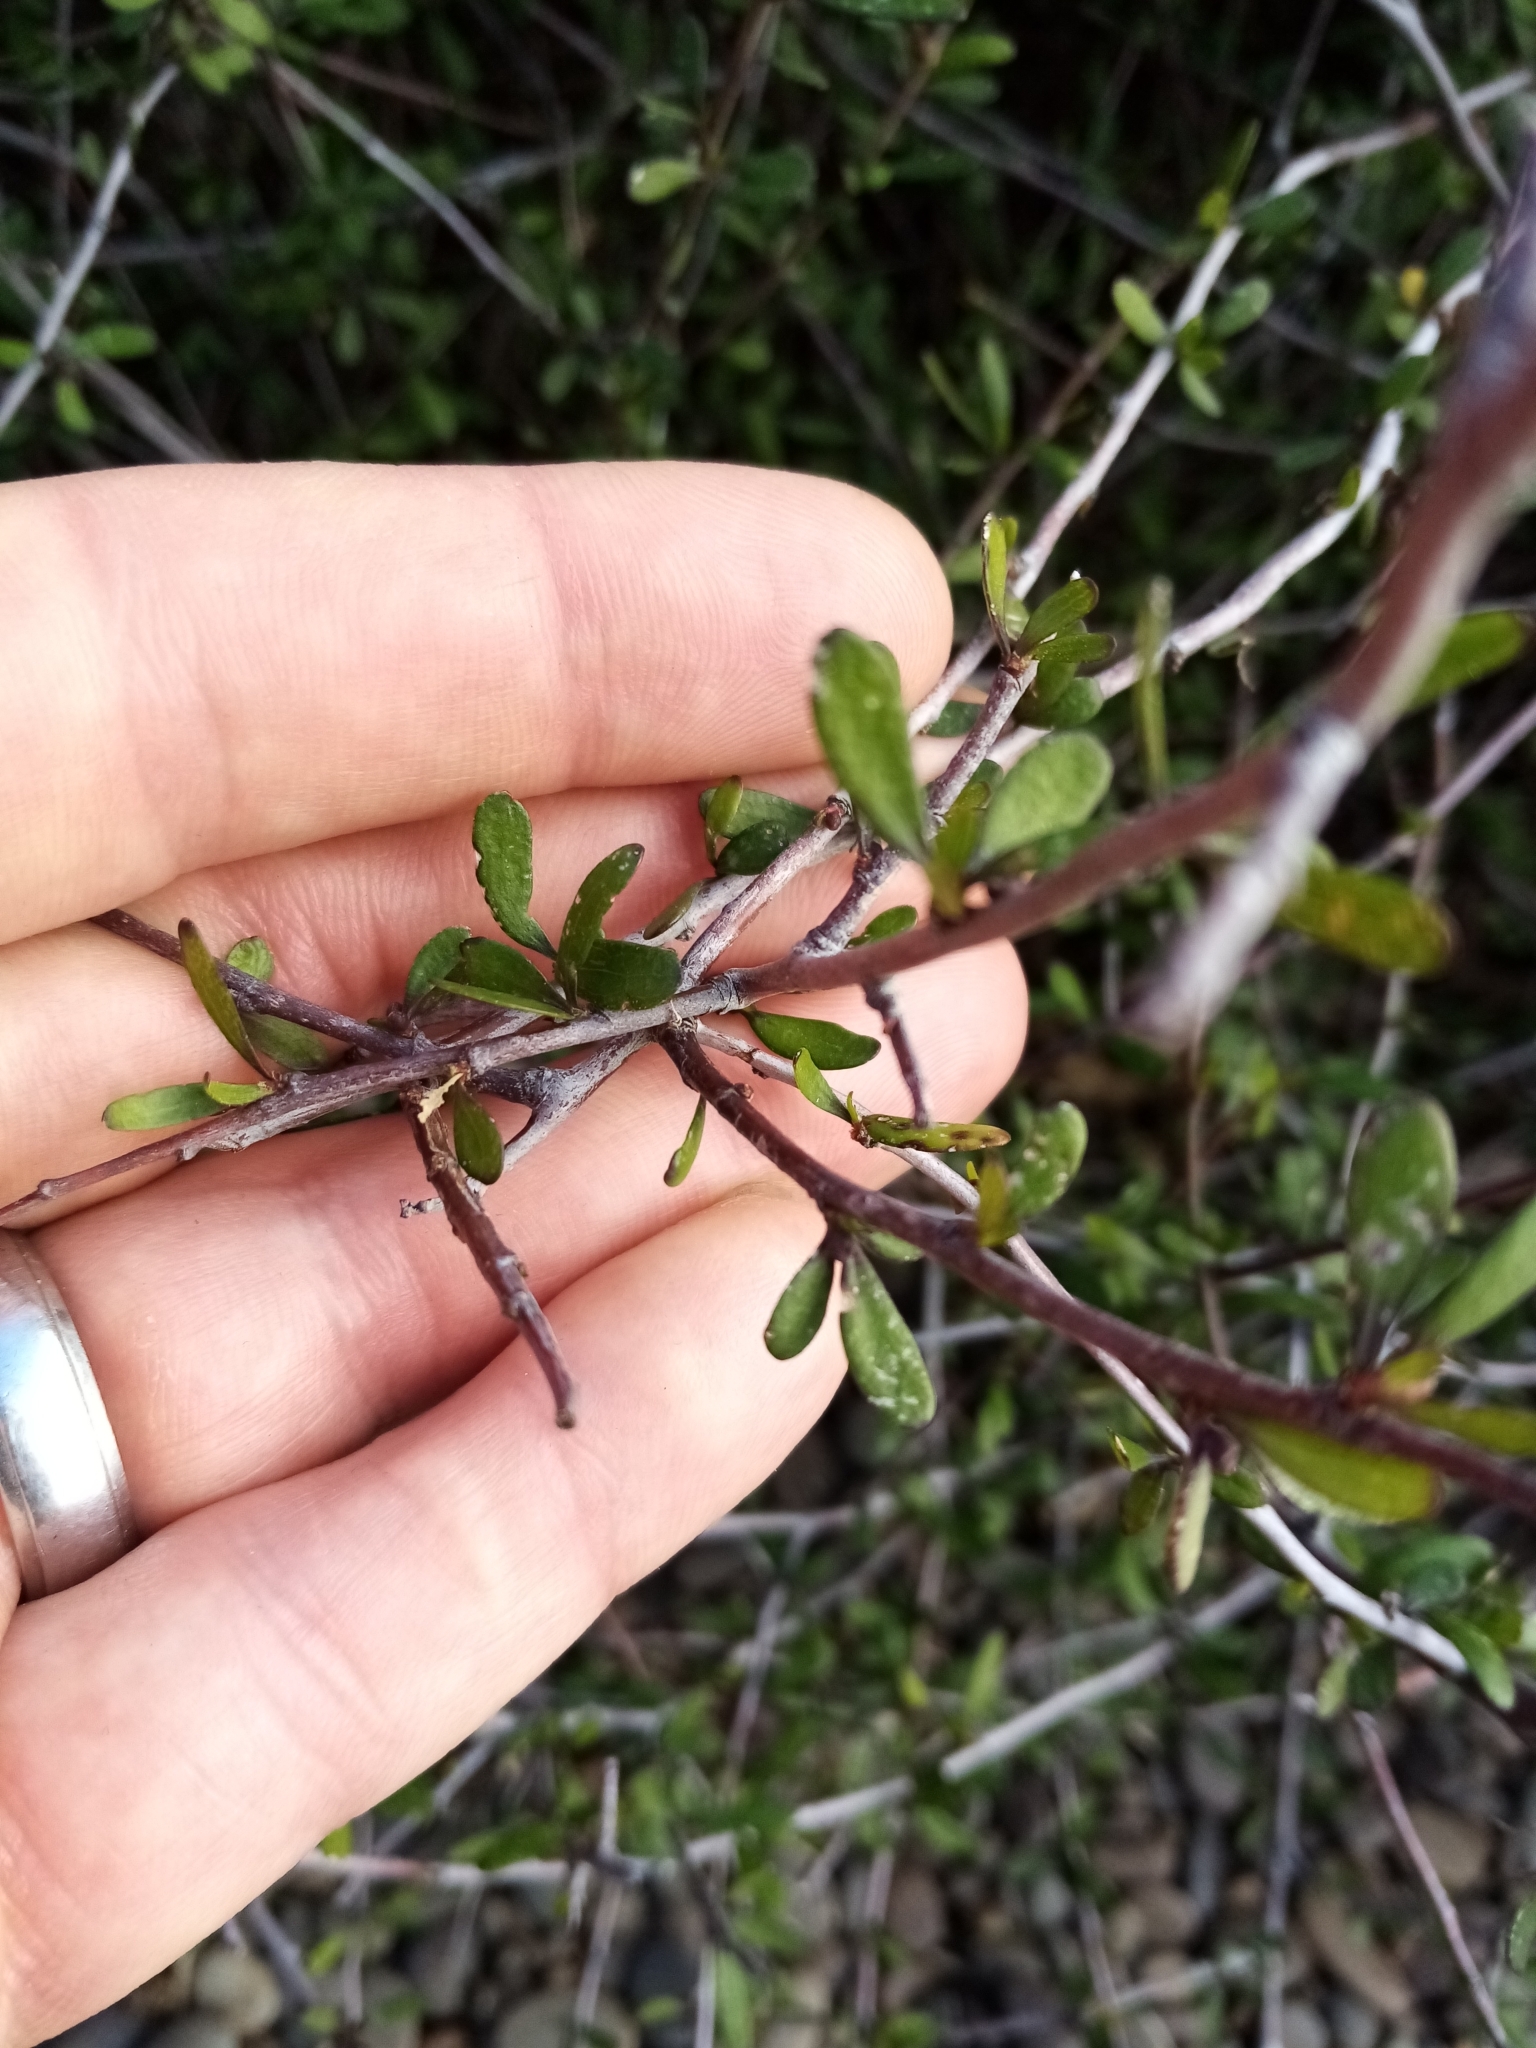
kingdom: Plantae
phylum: Tracheophyta
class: Magnoliopsida
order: Malvales
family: Malvaceae
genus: Plagianthus
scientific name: Plagianthus divaricatus
